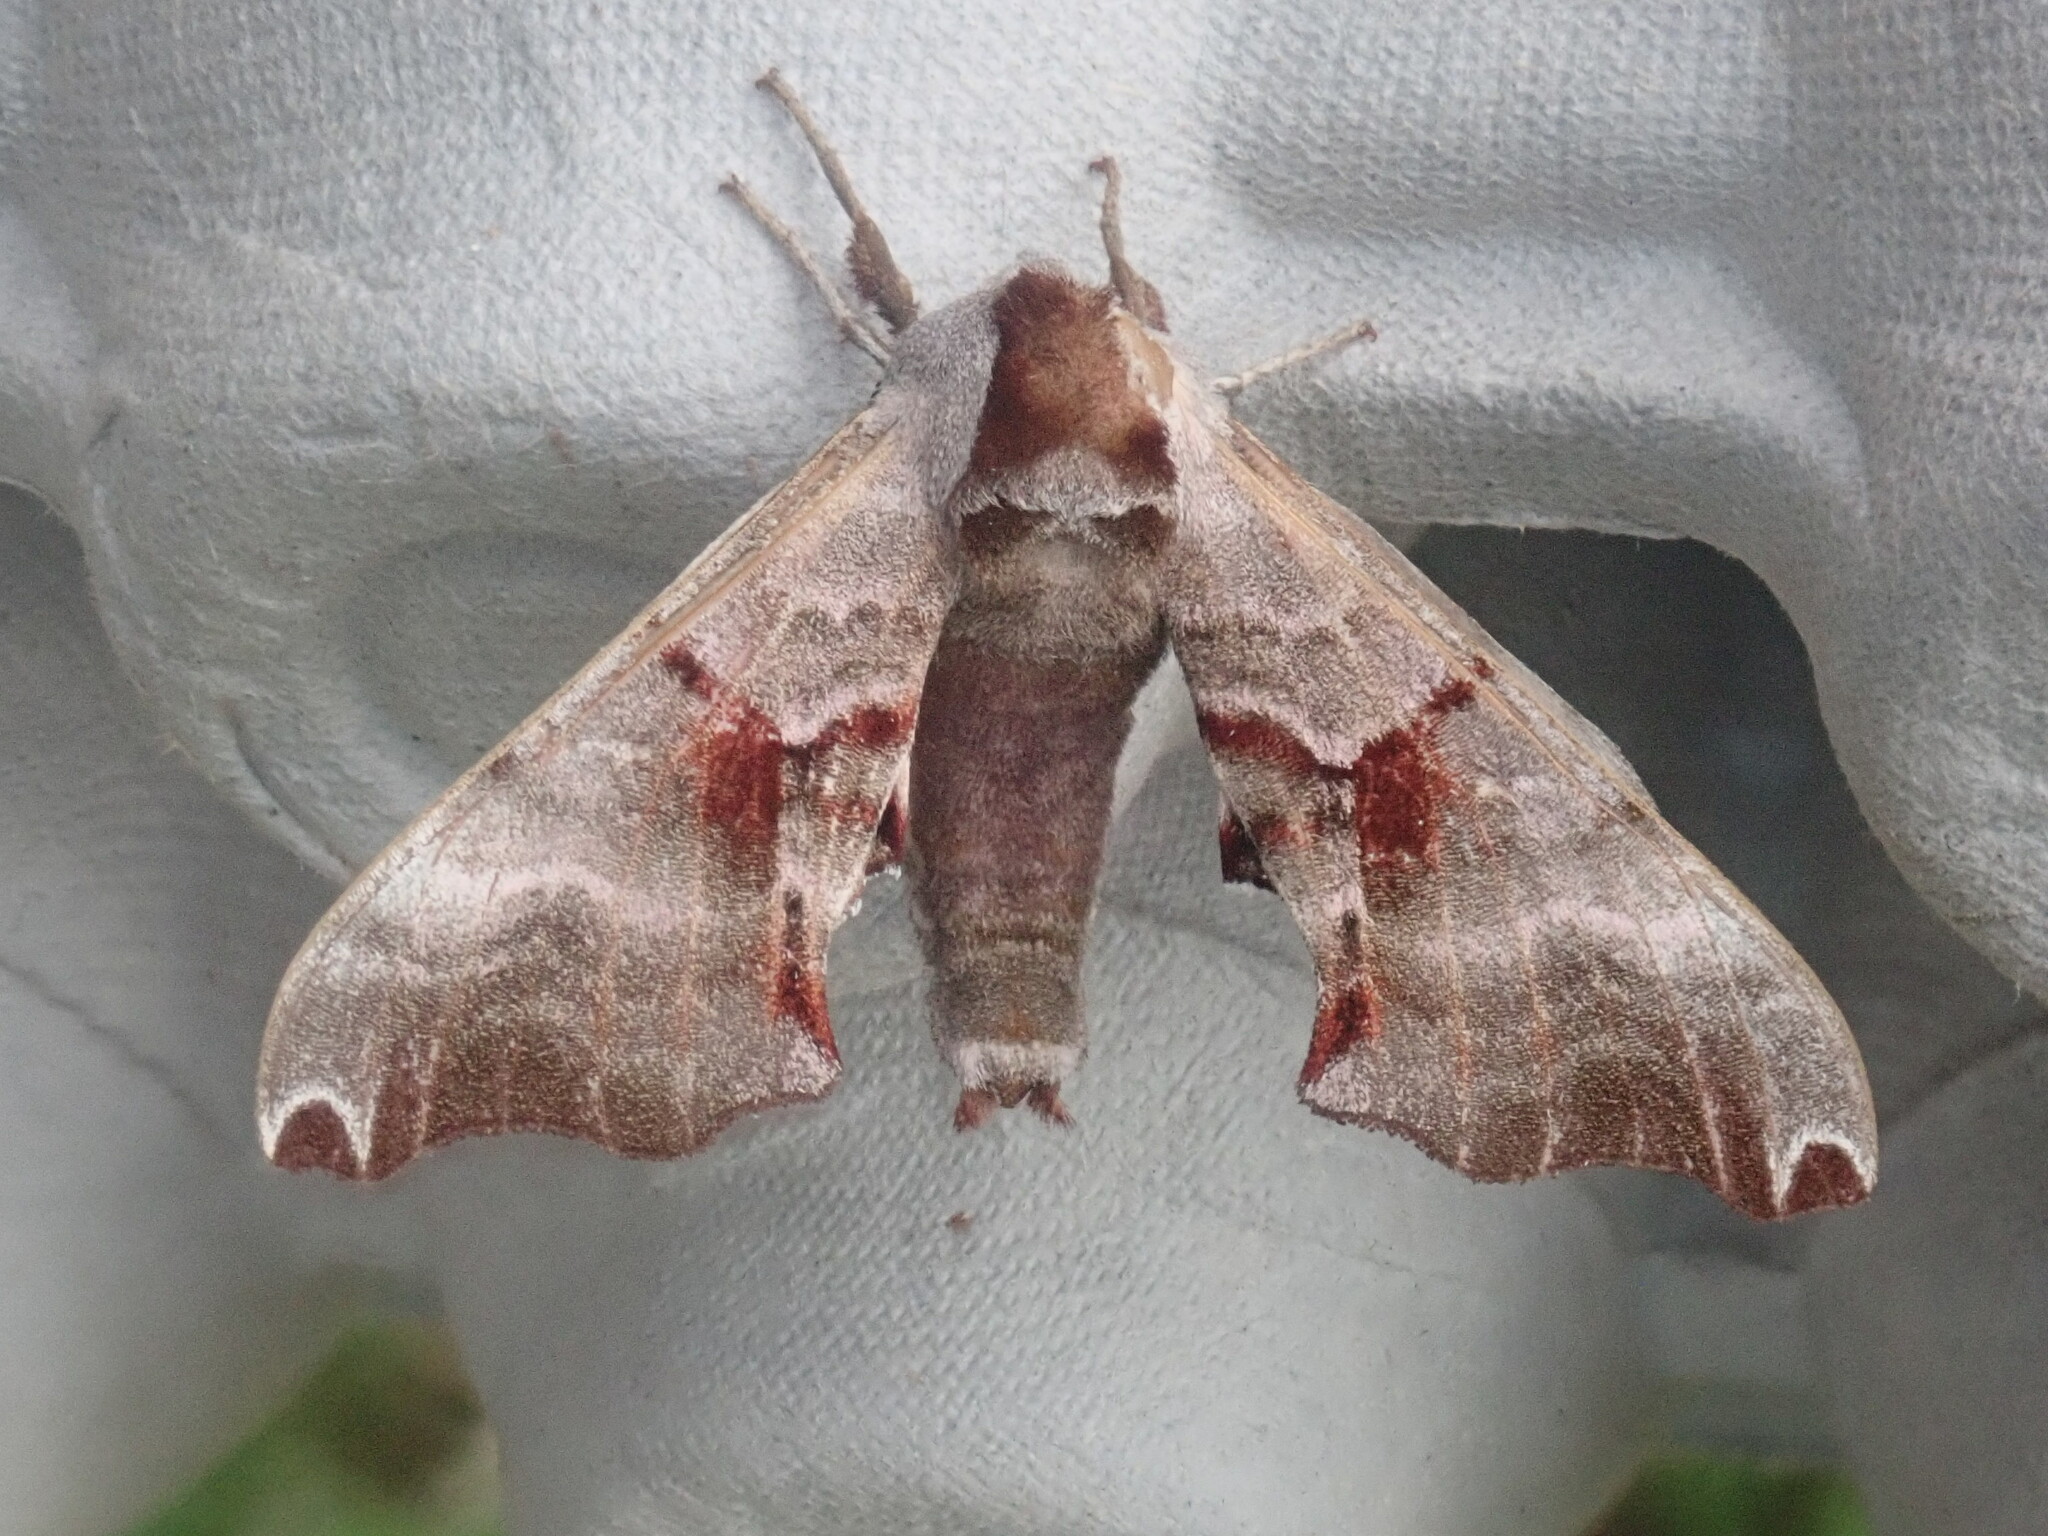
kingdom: Animalia
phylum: Arthropoda
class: Insecta
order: Lepidoptera
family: Sphingidae
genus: Smerinthus
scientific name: Smerinthus jamaicensis
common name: Twin spotted sphinx
